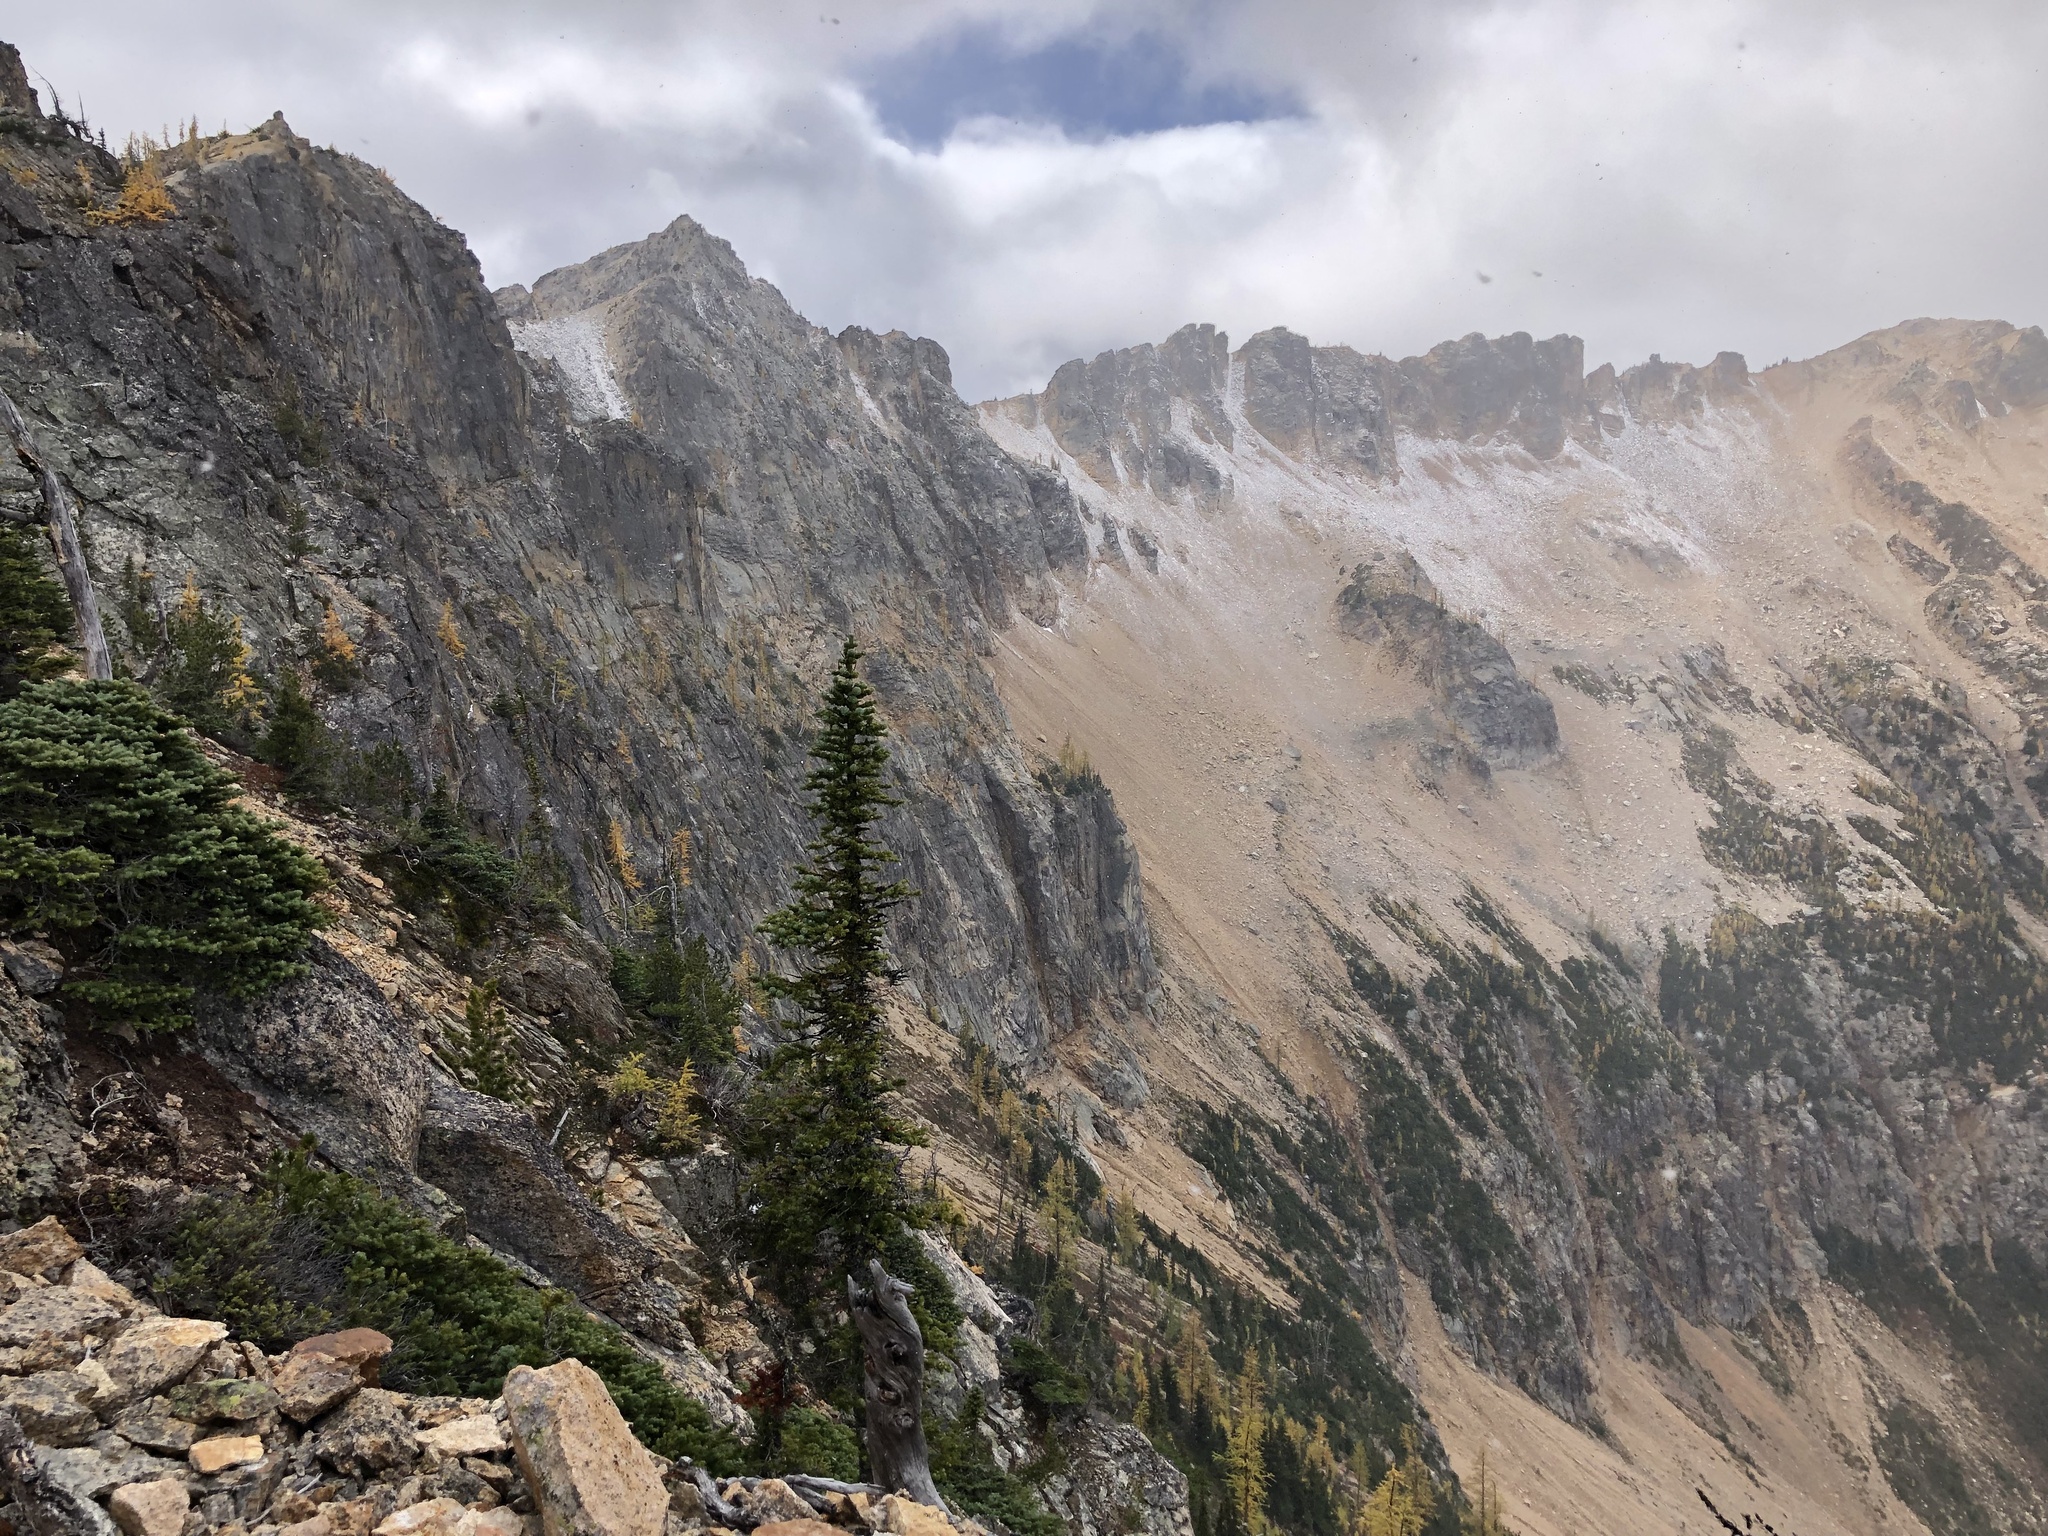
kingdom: Plantae
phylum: Tracheophyta
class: Pinopsida
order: Pinales
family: Pinaceae
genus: Abies
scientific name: Abies lasiocarpa
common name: Subalpine fir
